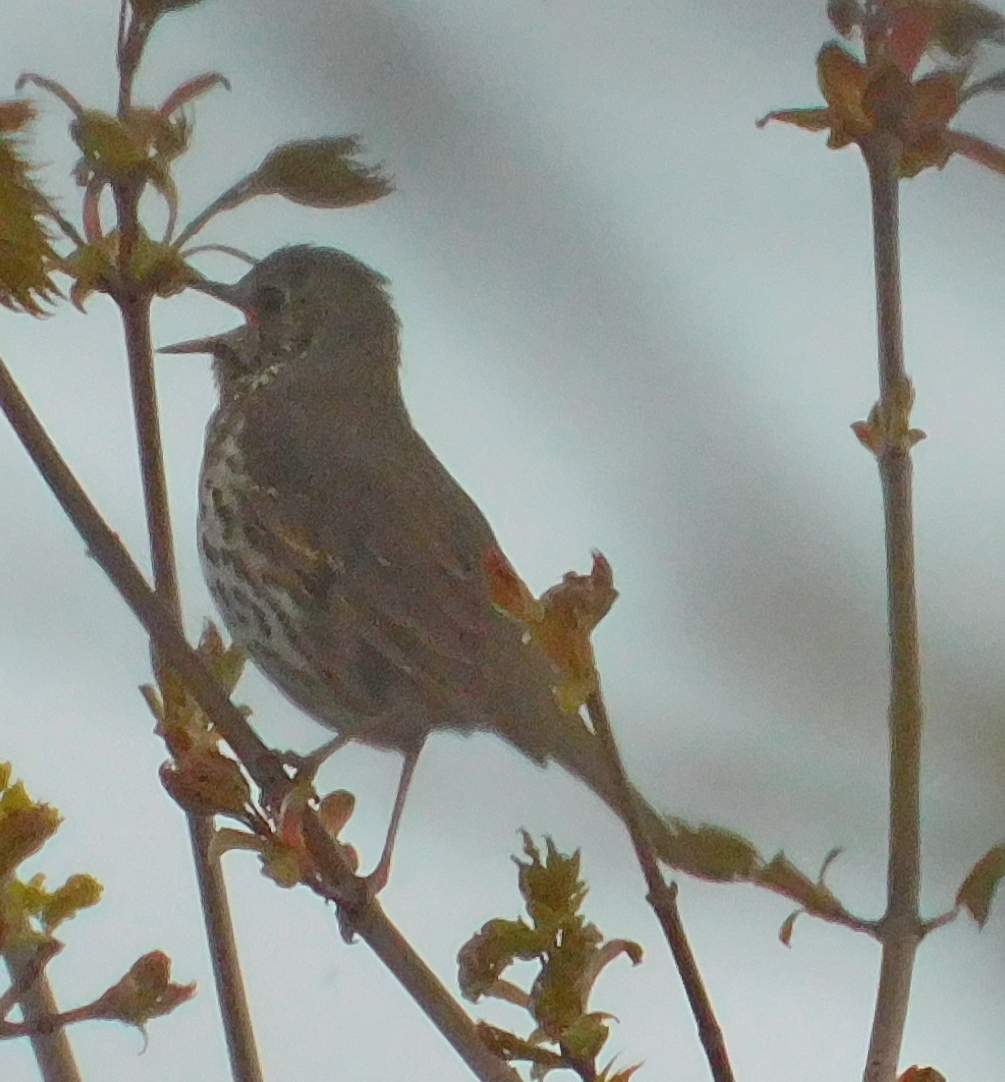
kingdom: Animalia
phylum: Chordata
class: Aves
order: Passeriformes
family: Turdidae
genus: Turdus
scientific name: Turdus philomelos
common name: Song thrush
